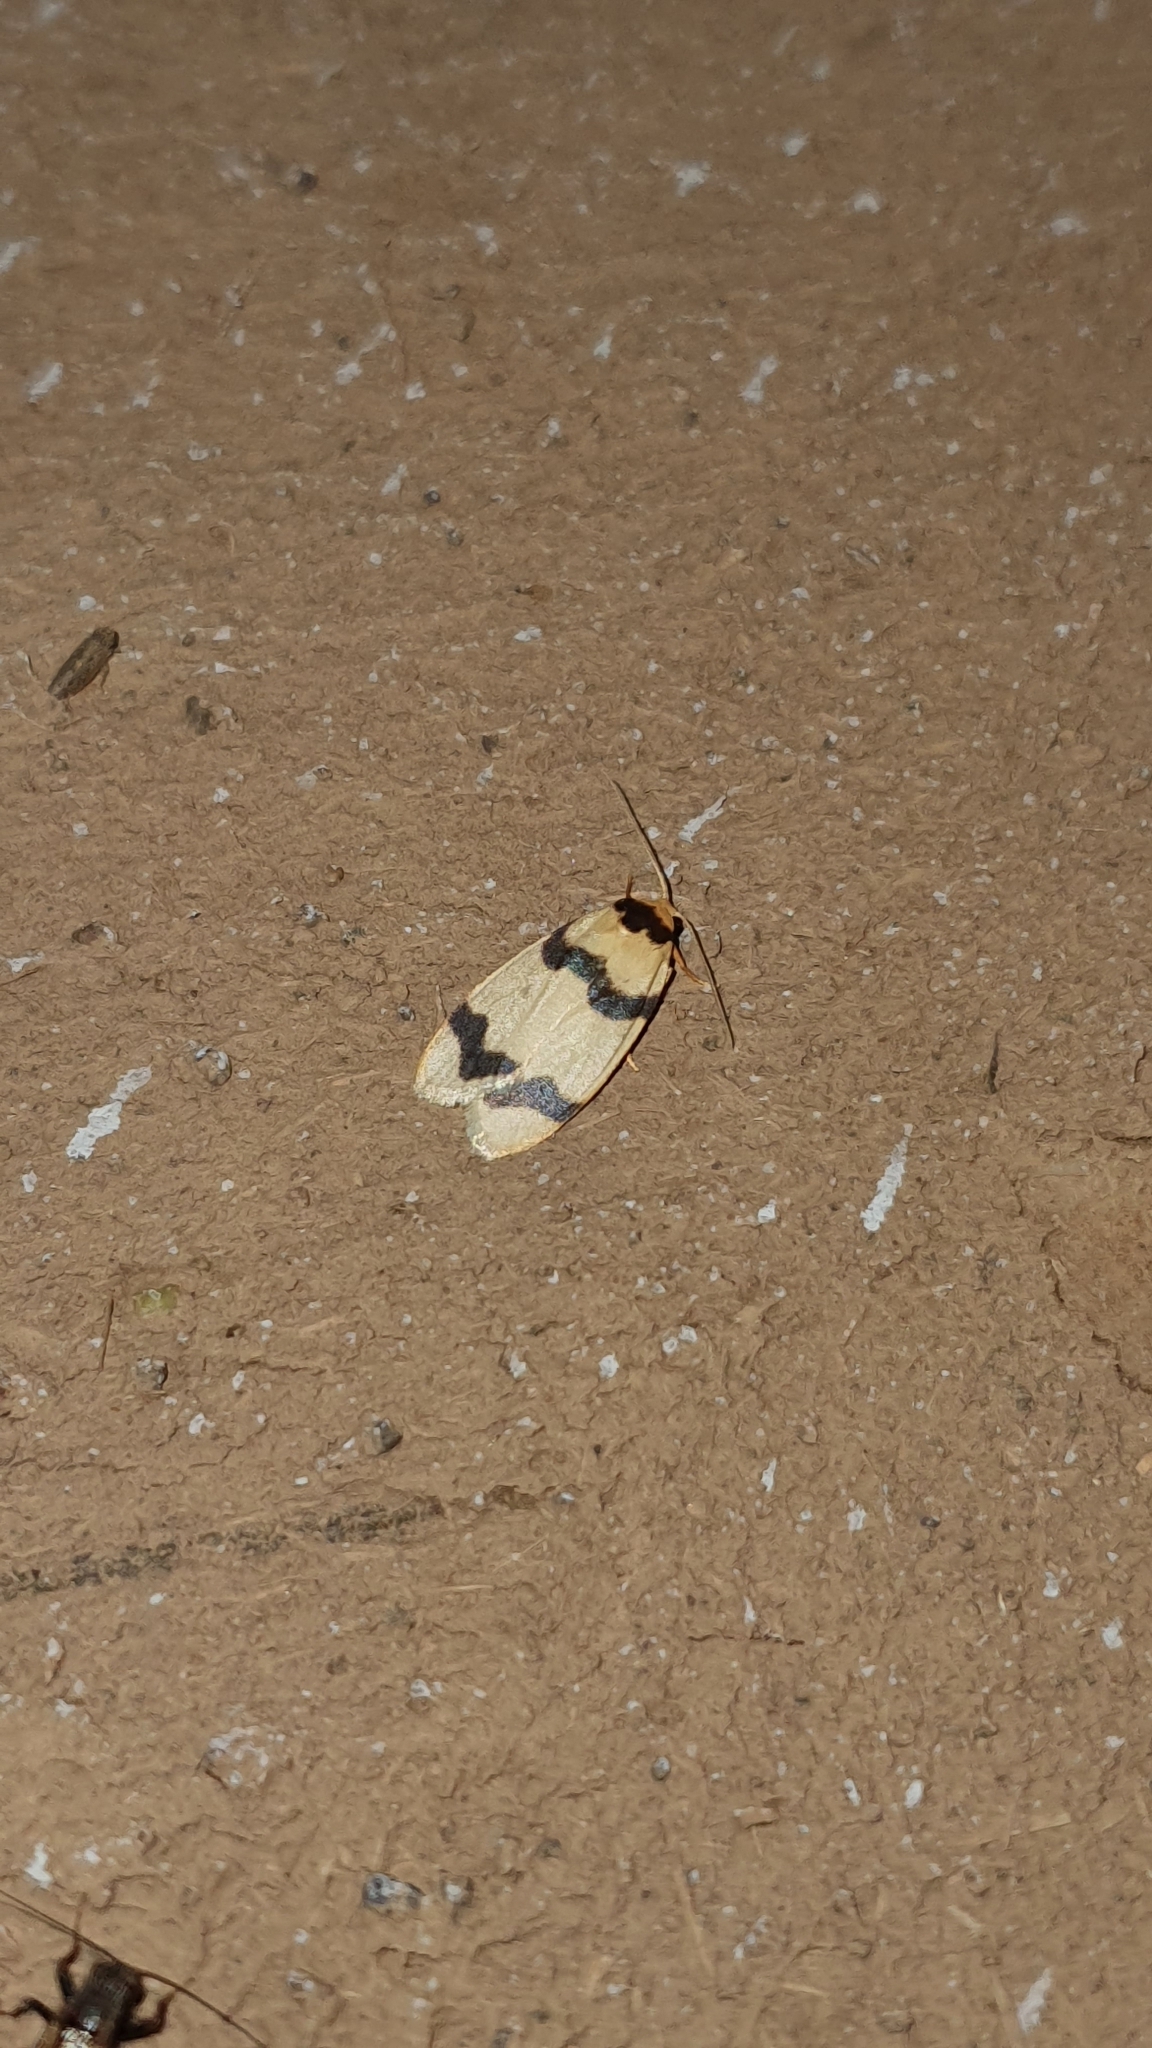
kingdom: Animalia
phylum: Arthropoda
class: Insecta
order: Lepidoptera
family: Erebidae
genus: Padenia
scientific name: Padenia transversa
